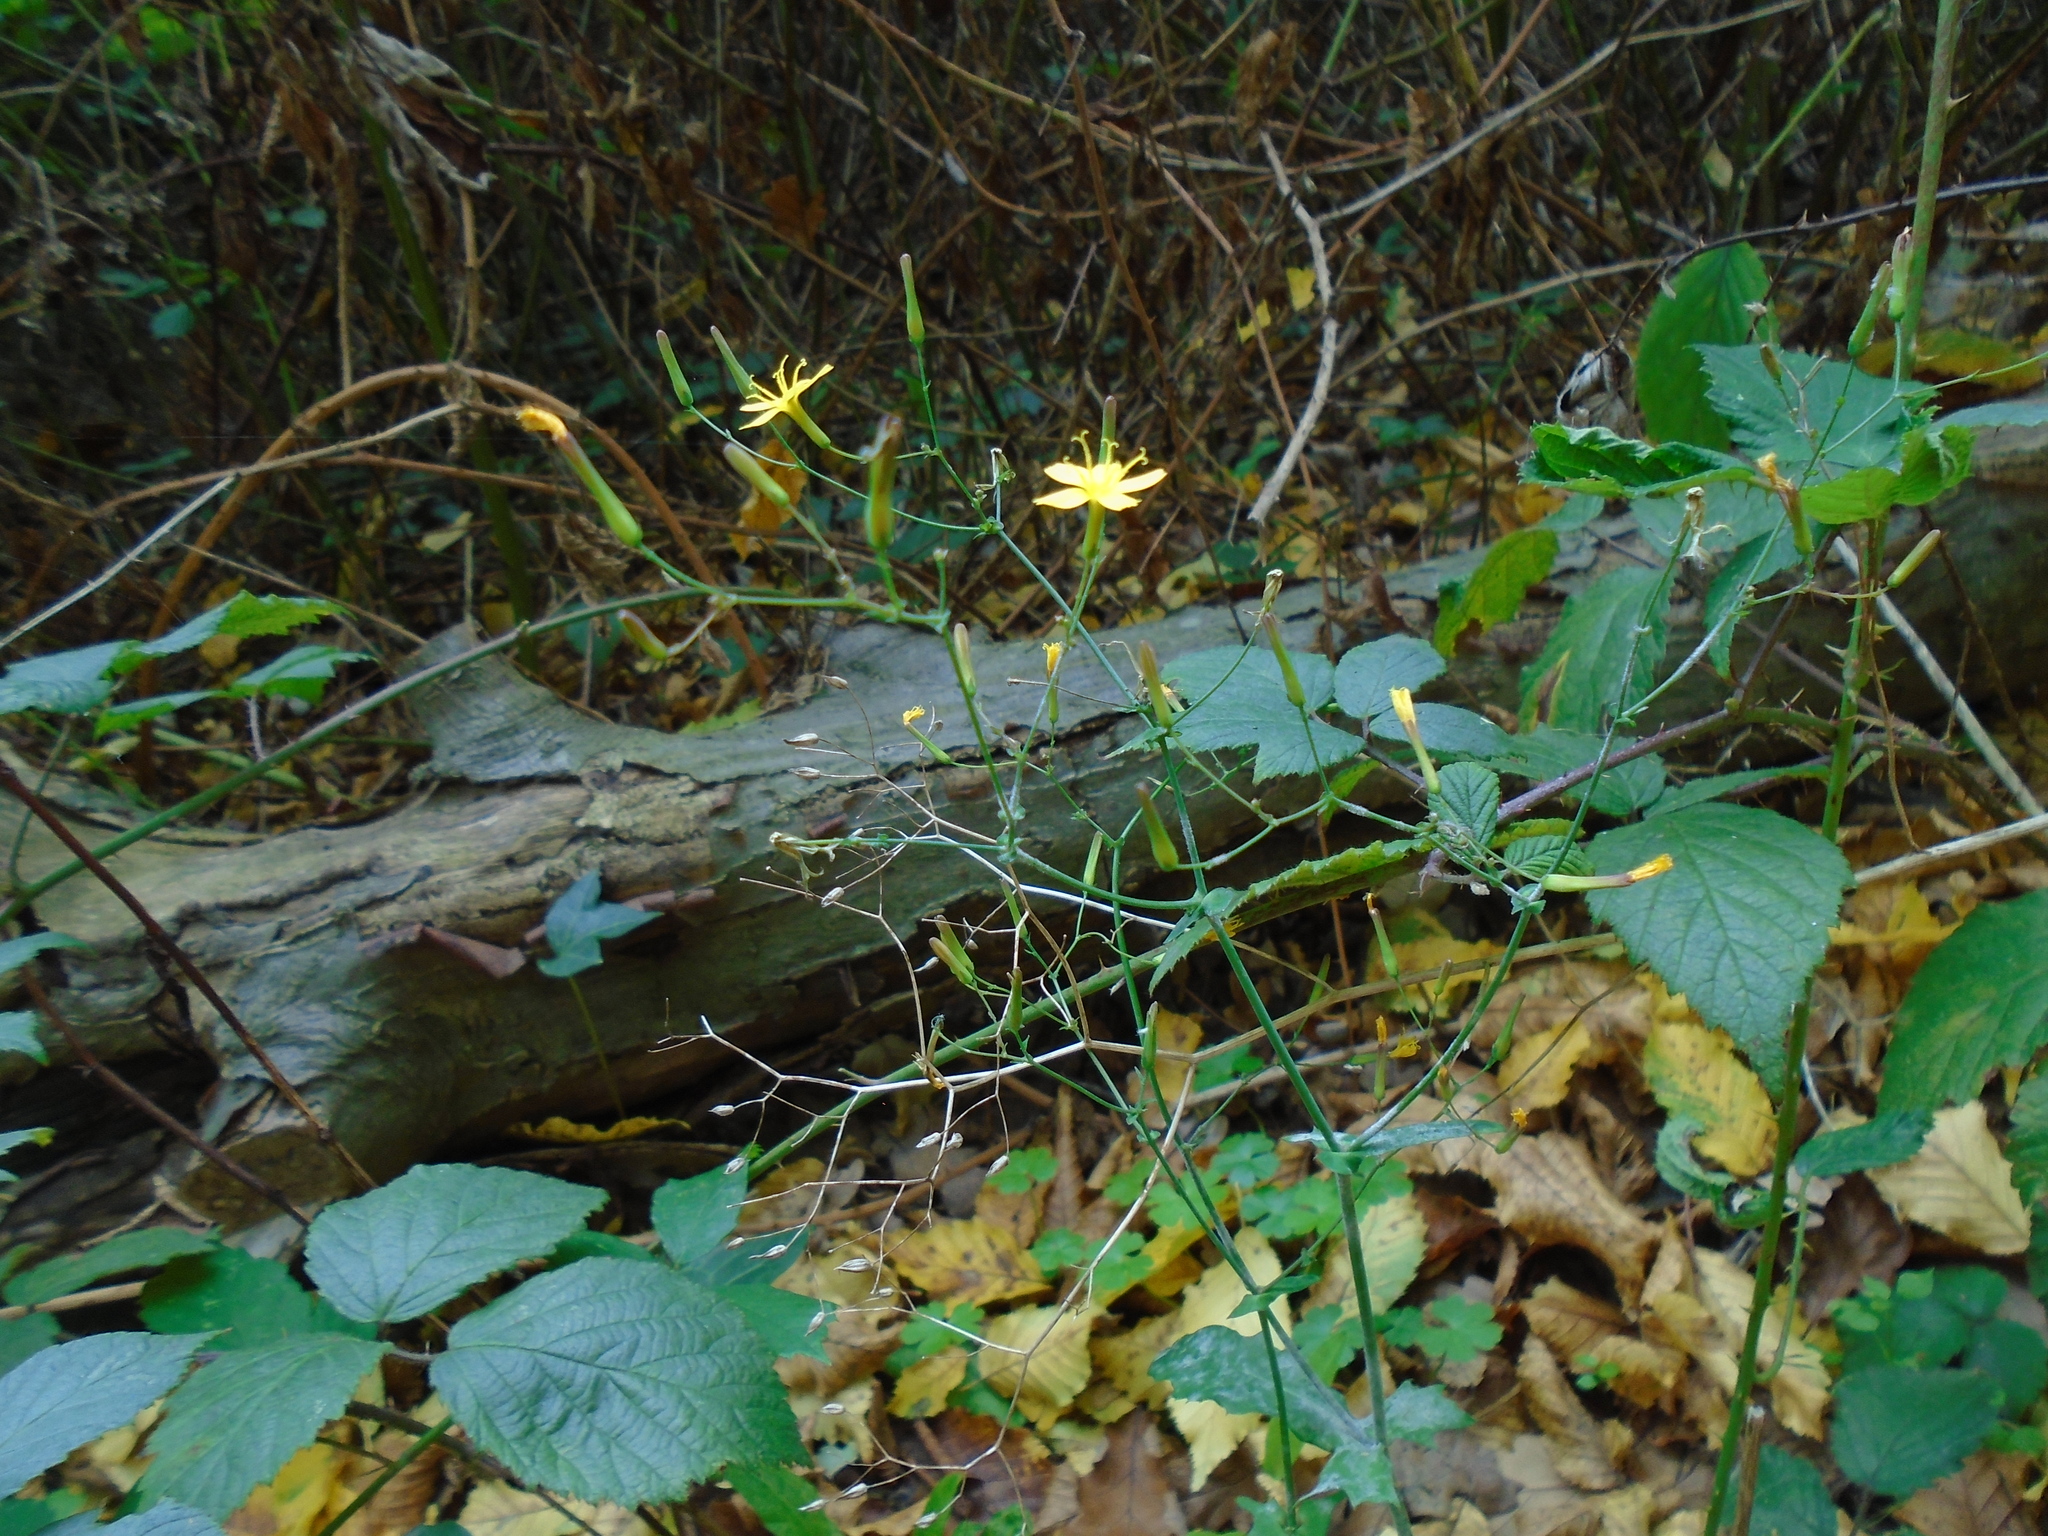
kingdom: Plantae
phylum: Tracheophyta
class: Magnoliopsida
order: Asterales
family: Asteraceae
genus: Mycelis
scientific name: Mycelis muralis
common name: Wall lettuce
